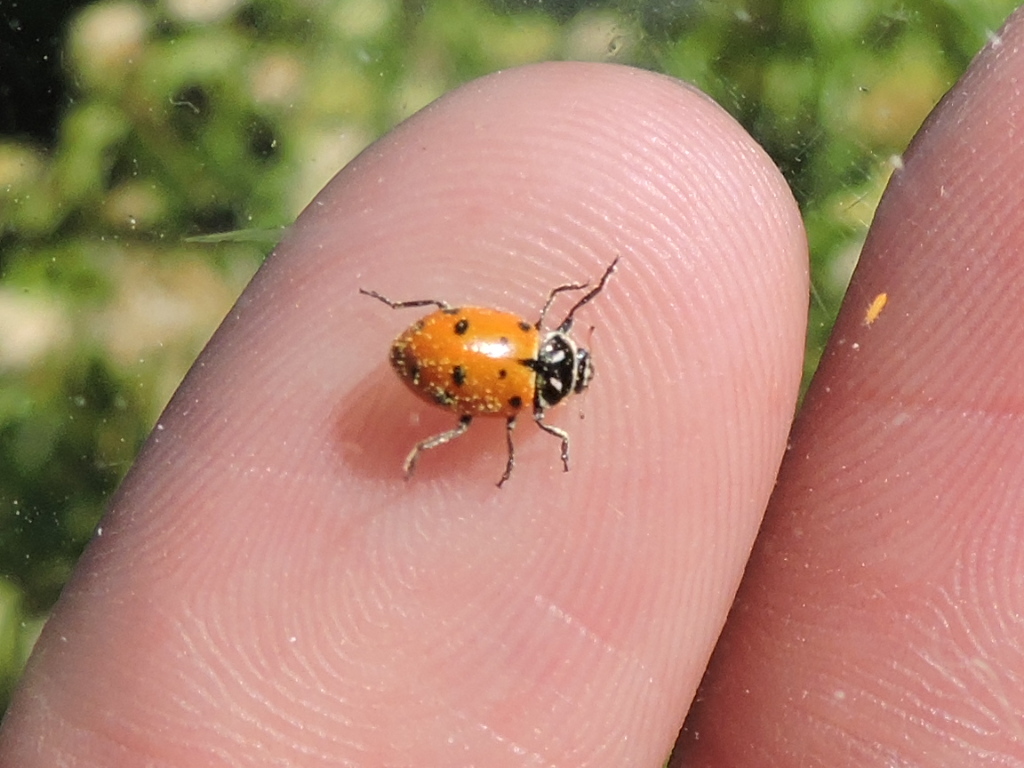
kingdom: Animalia
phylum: Arthropoda
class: Insecta
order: Coleoptera
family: Coccinellidae
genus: Hippodamia
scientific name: Hippodamia convergens
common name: Convergent lady beetle
